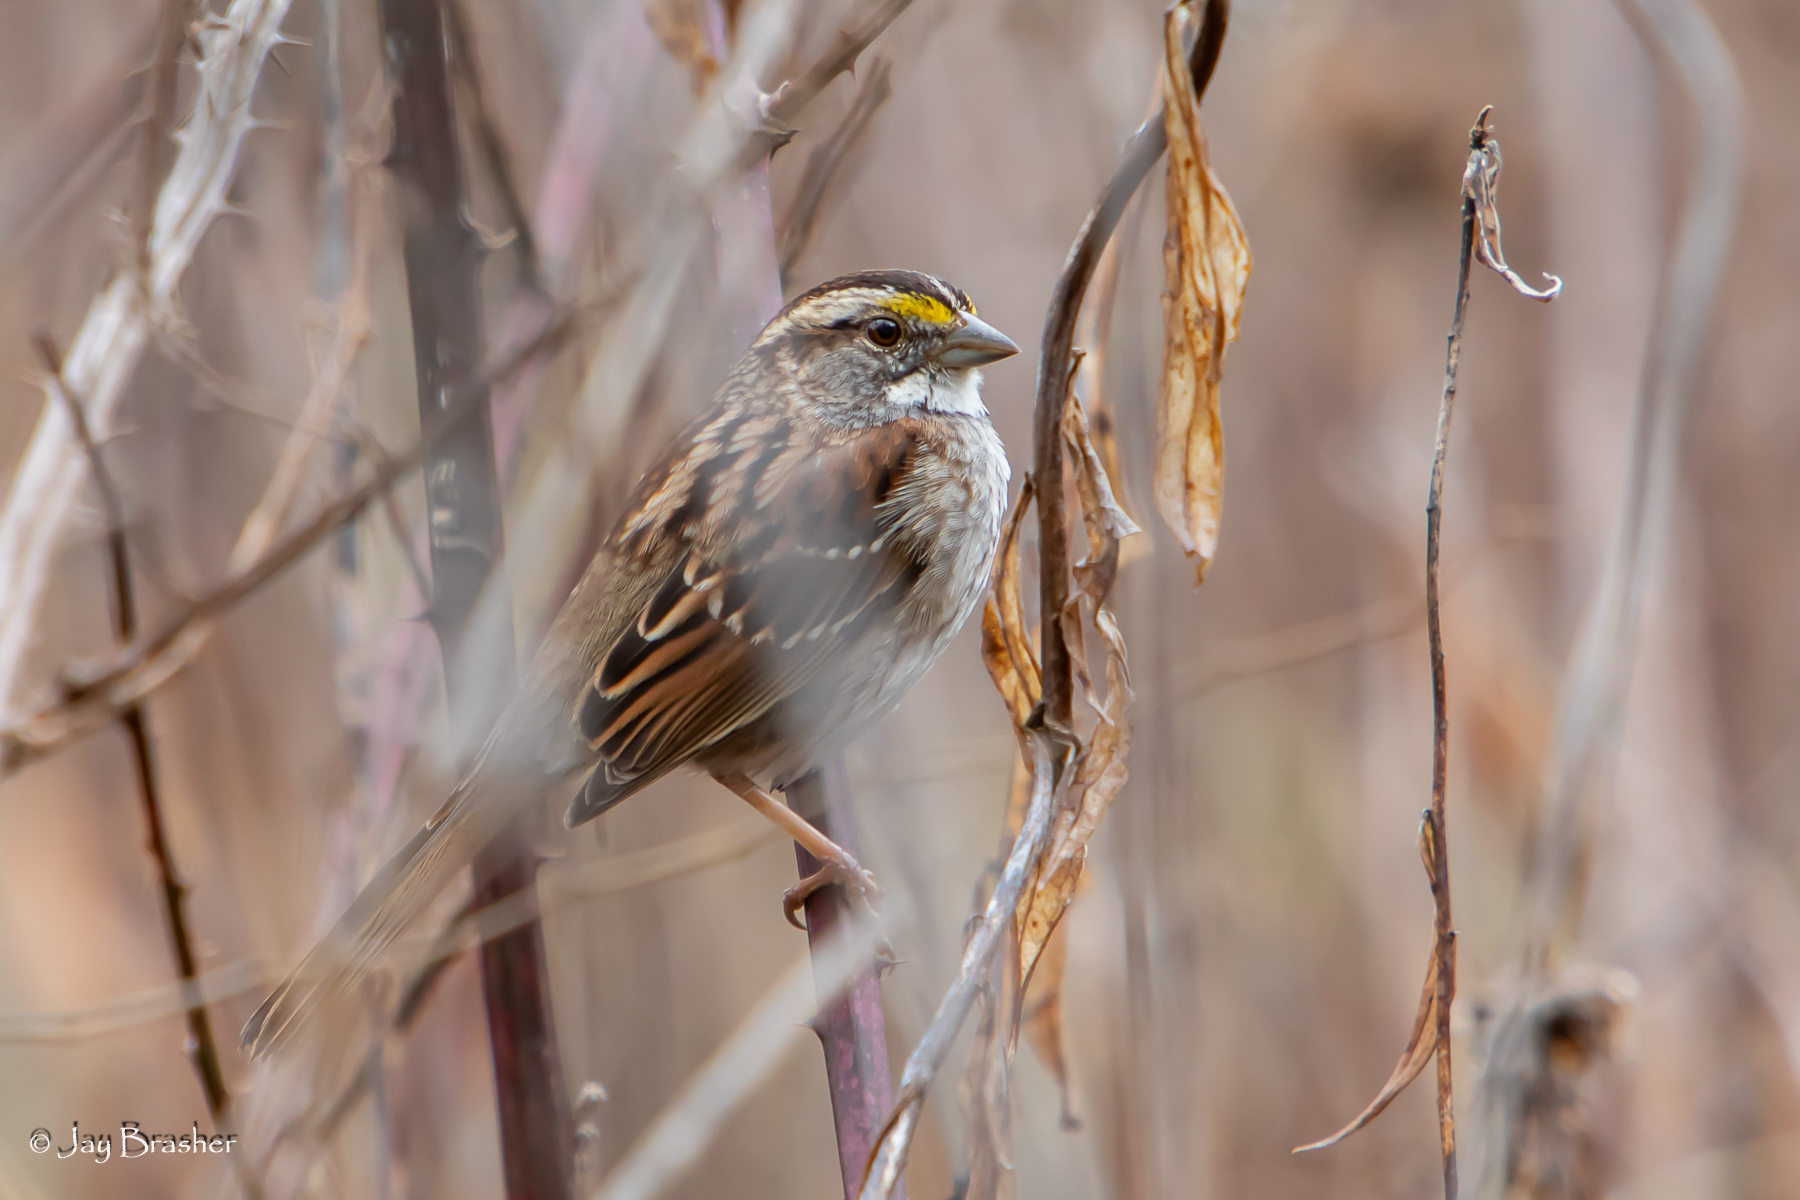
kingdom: Animalia
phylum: Chordata
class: Aves
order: Passeriformes
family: Passerellidae
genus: Zonotrichia
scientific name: Zonotrichia albicollis
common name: White-throated sparrow
